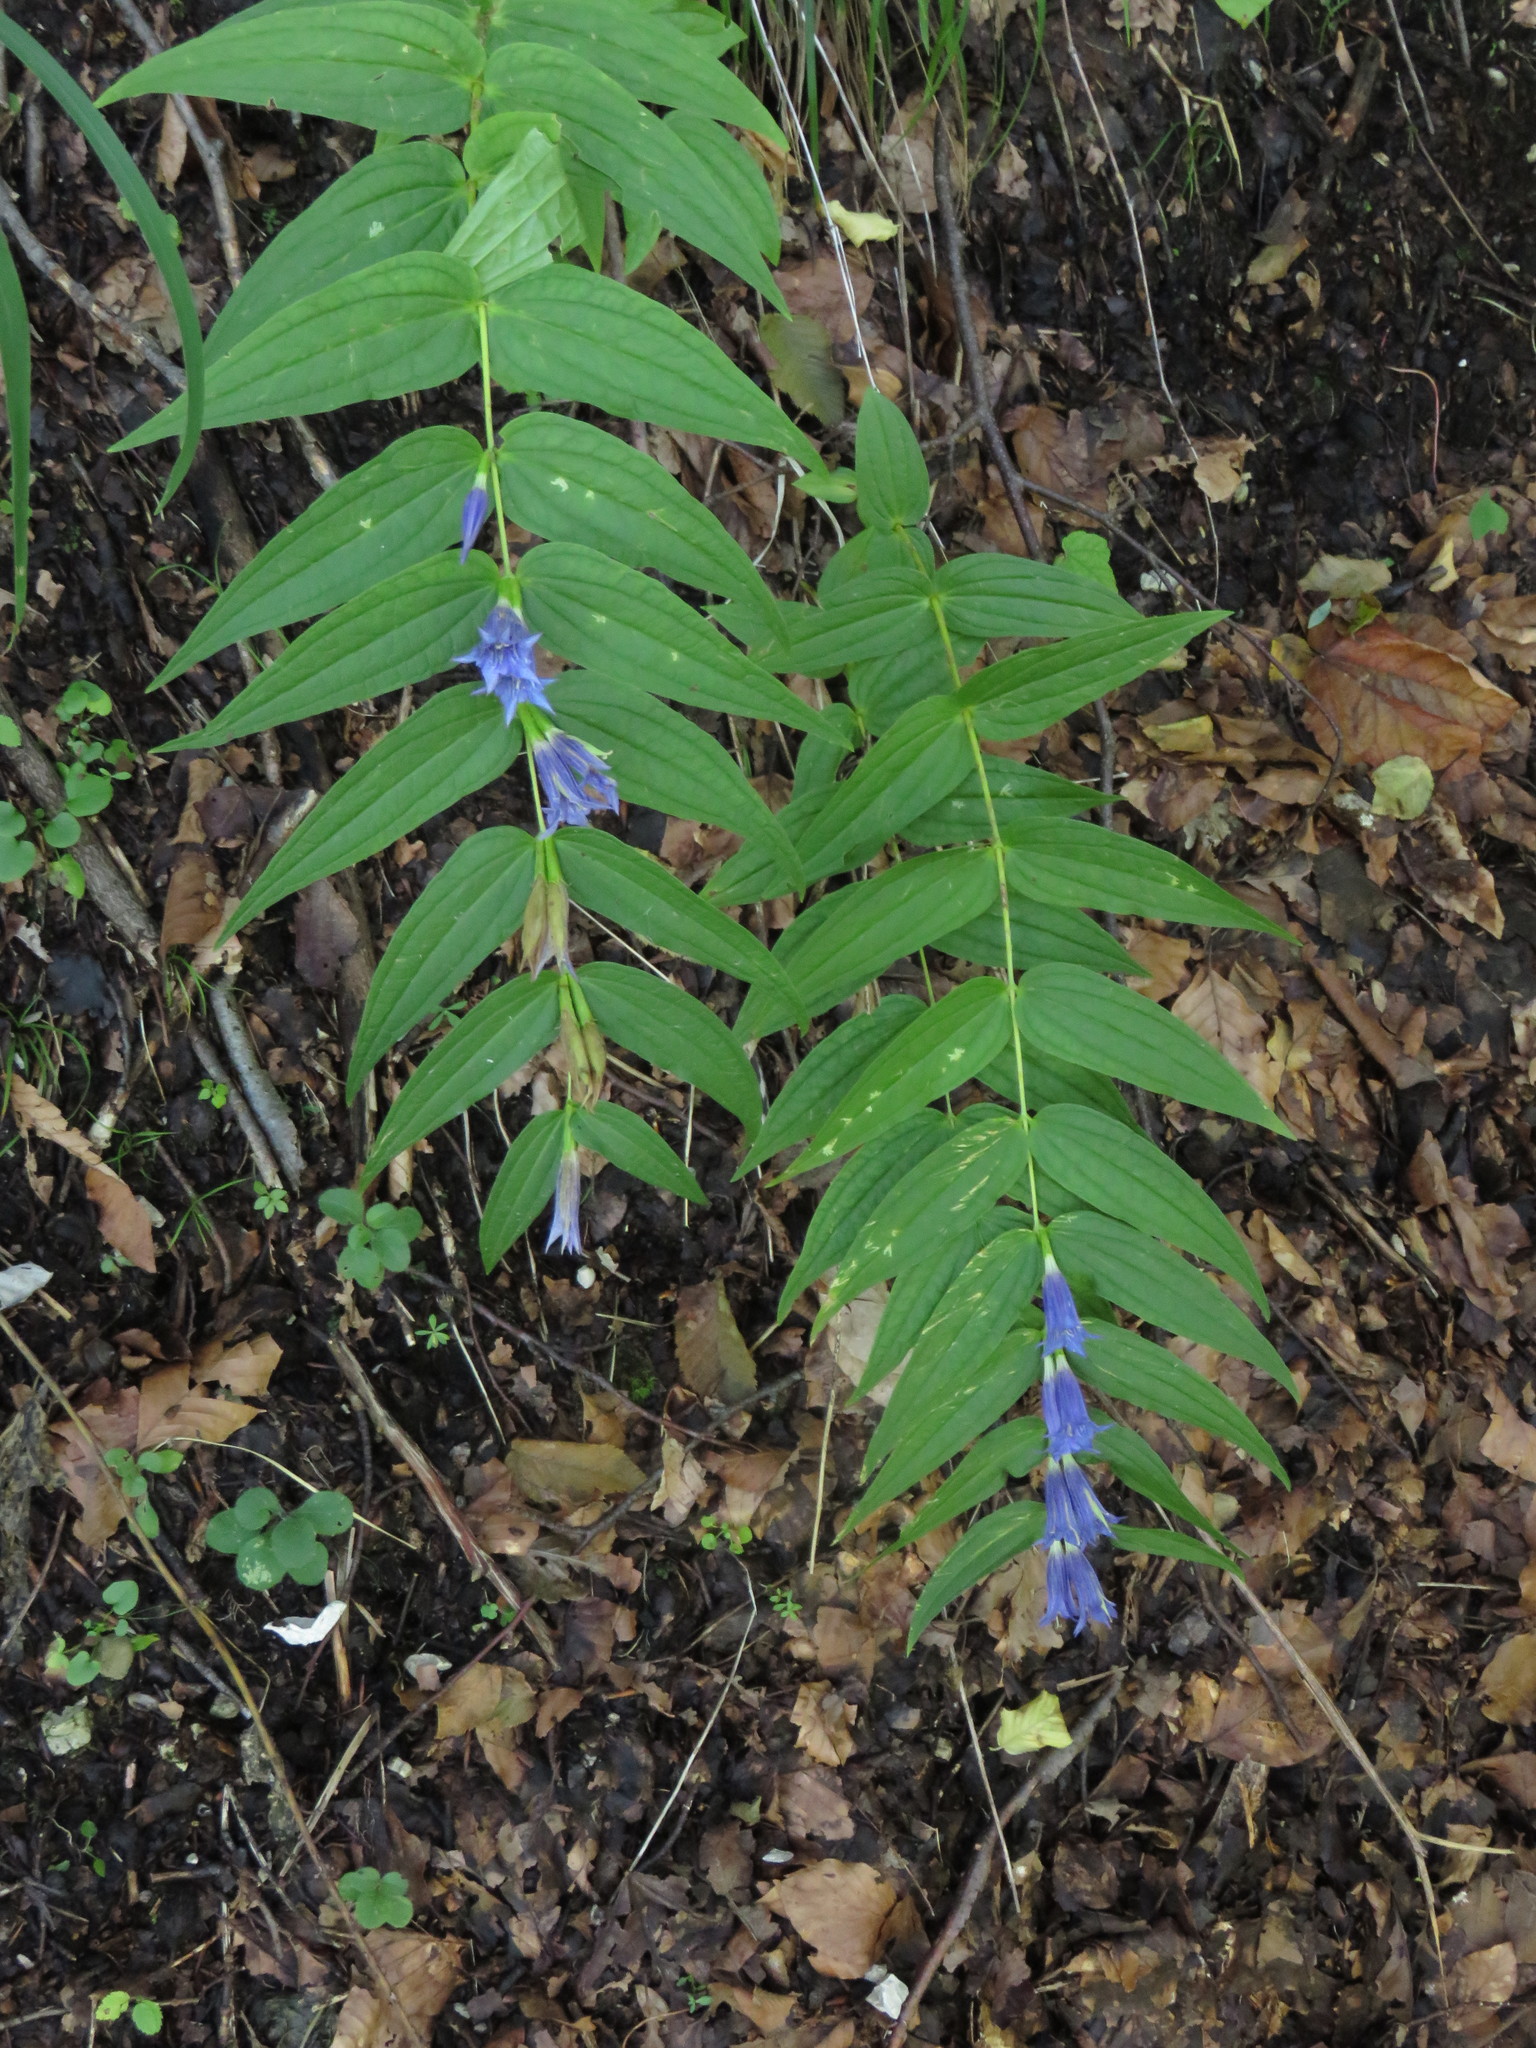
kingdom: Plantae
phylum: Tracheophyta
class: Magnoliopsida
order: Gentianales
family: Gentianaceae
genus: Gentiana
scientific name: Gentiana asclepiadea
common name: Willow gentian
